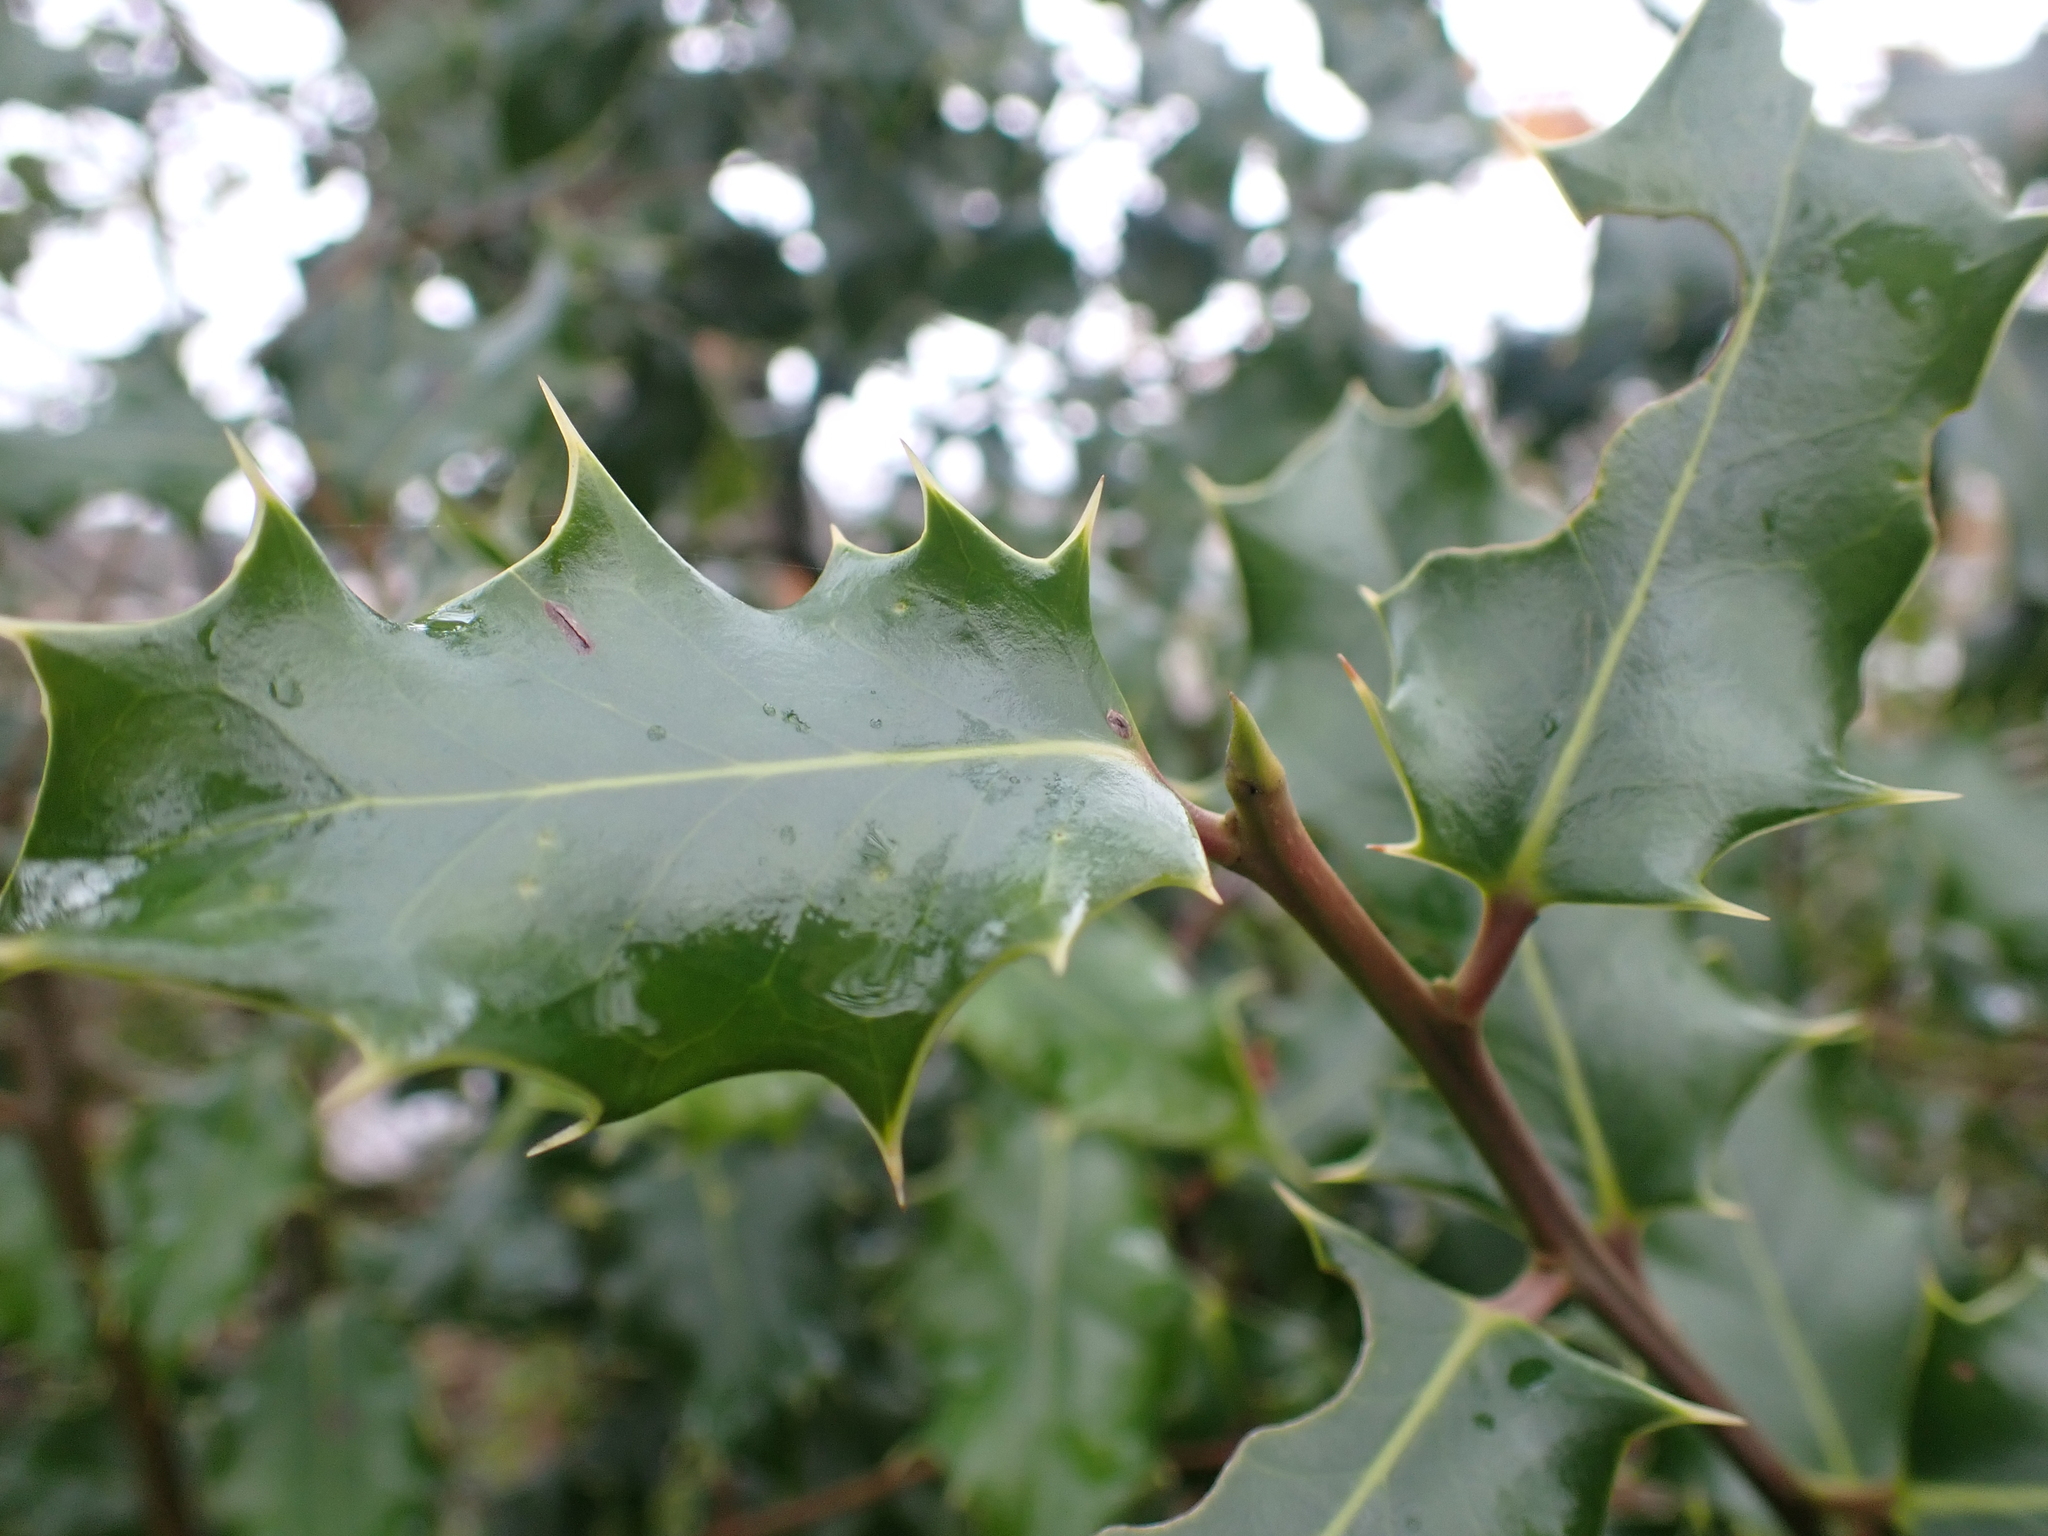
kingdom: Plantae
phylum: Tracheophyta
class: Magnoliopsida
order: Aquifoliales
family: Aquifoliaceae
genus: Ilex
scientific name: Ilex aquifolium
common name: English holly
